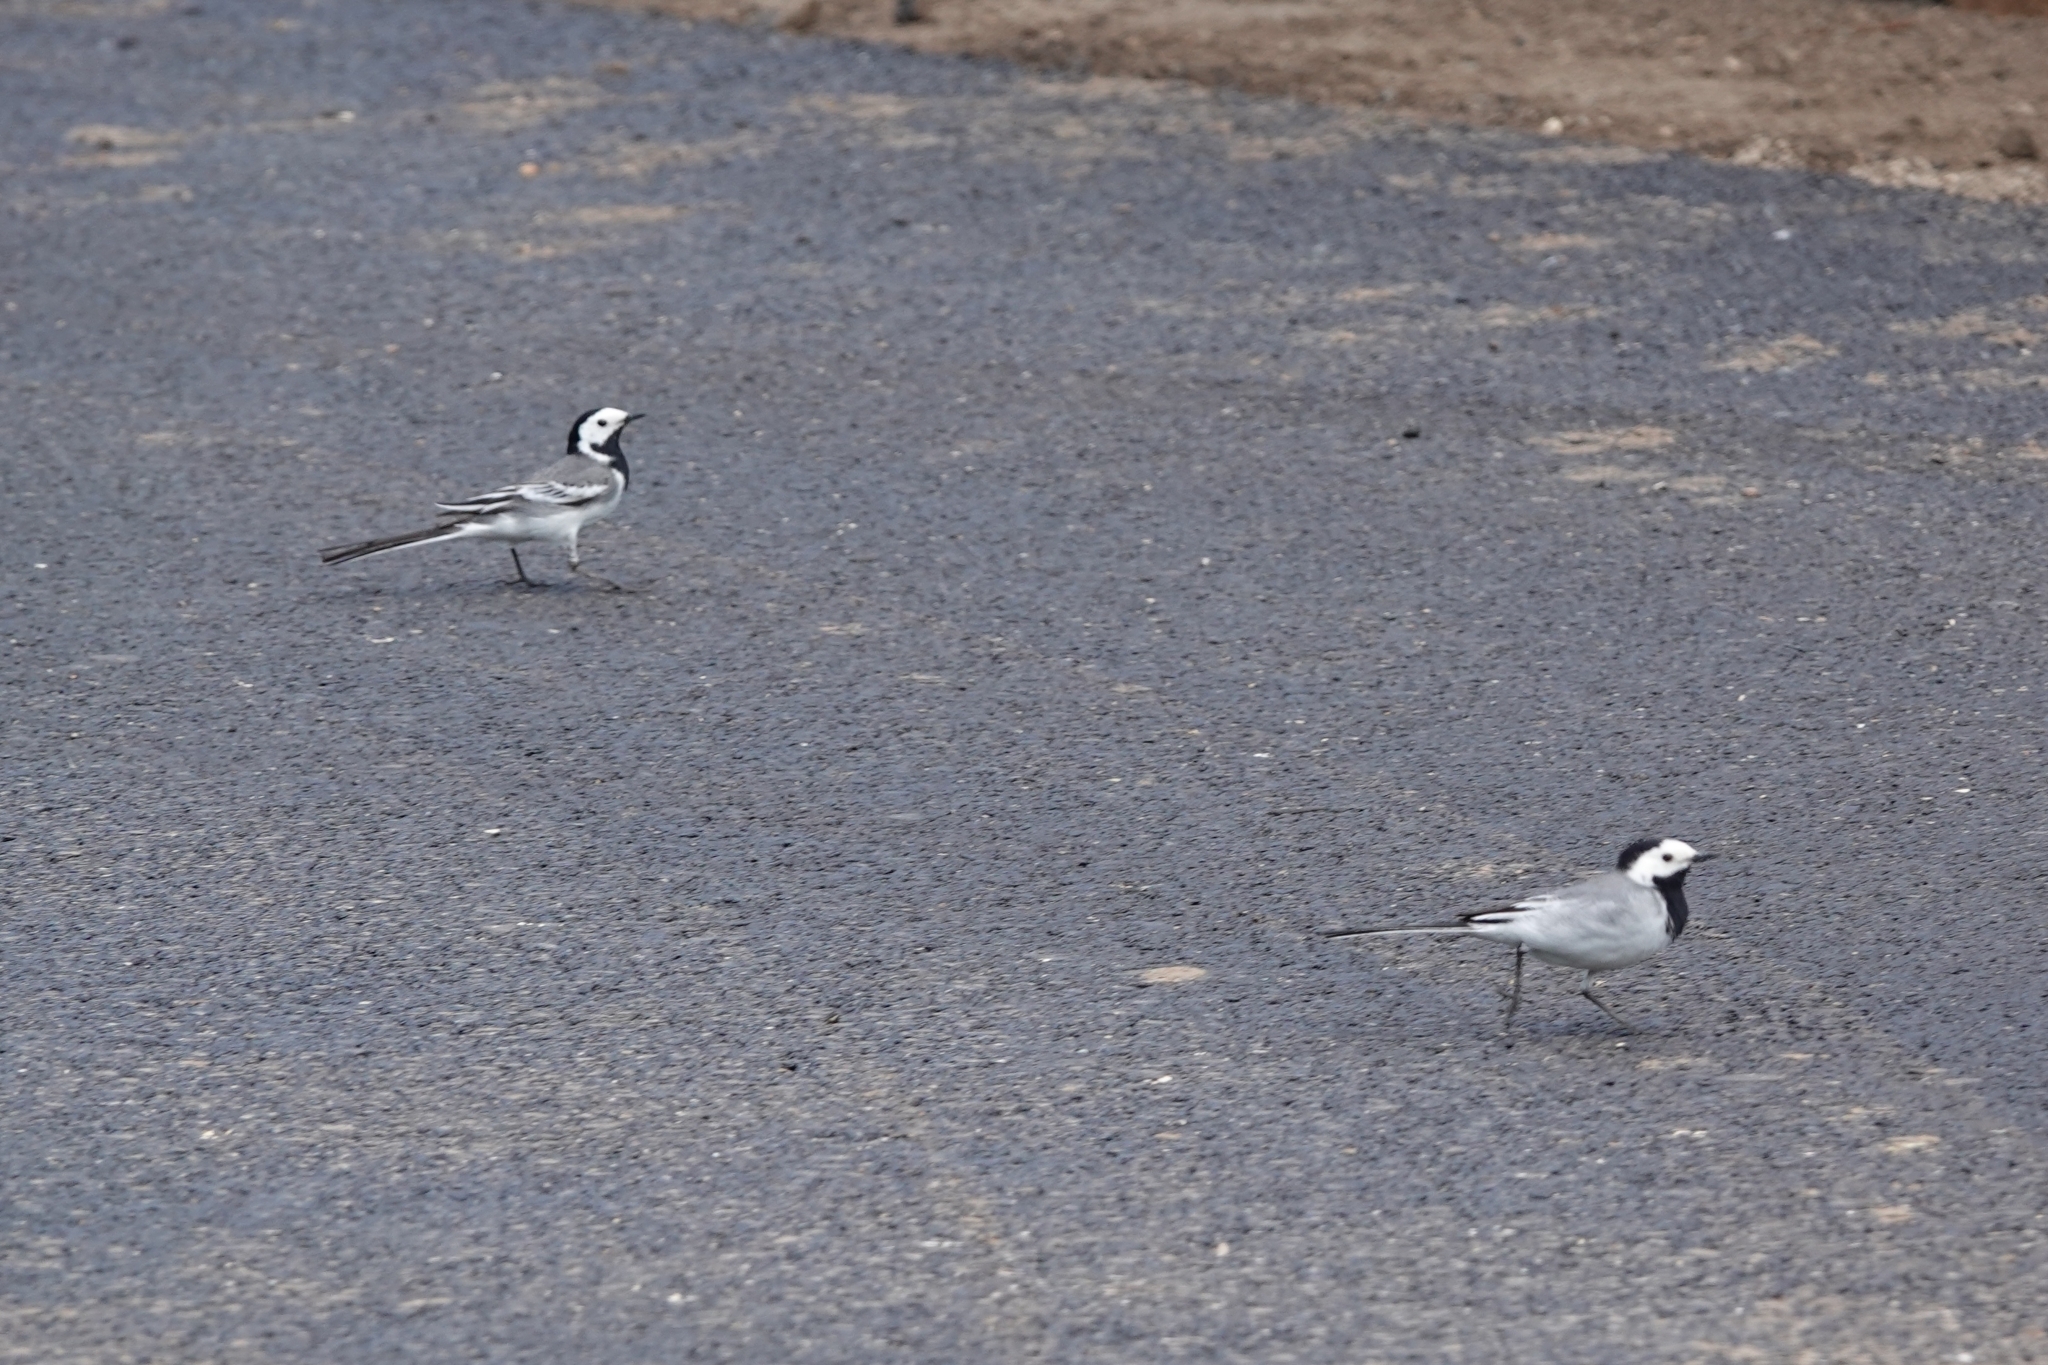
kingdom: Animalia
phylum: Chordata
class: Aves
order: Passeriformes
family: Motacillidae
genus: Motacilla
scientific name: Motacilla alba
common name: White wagtail
